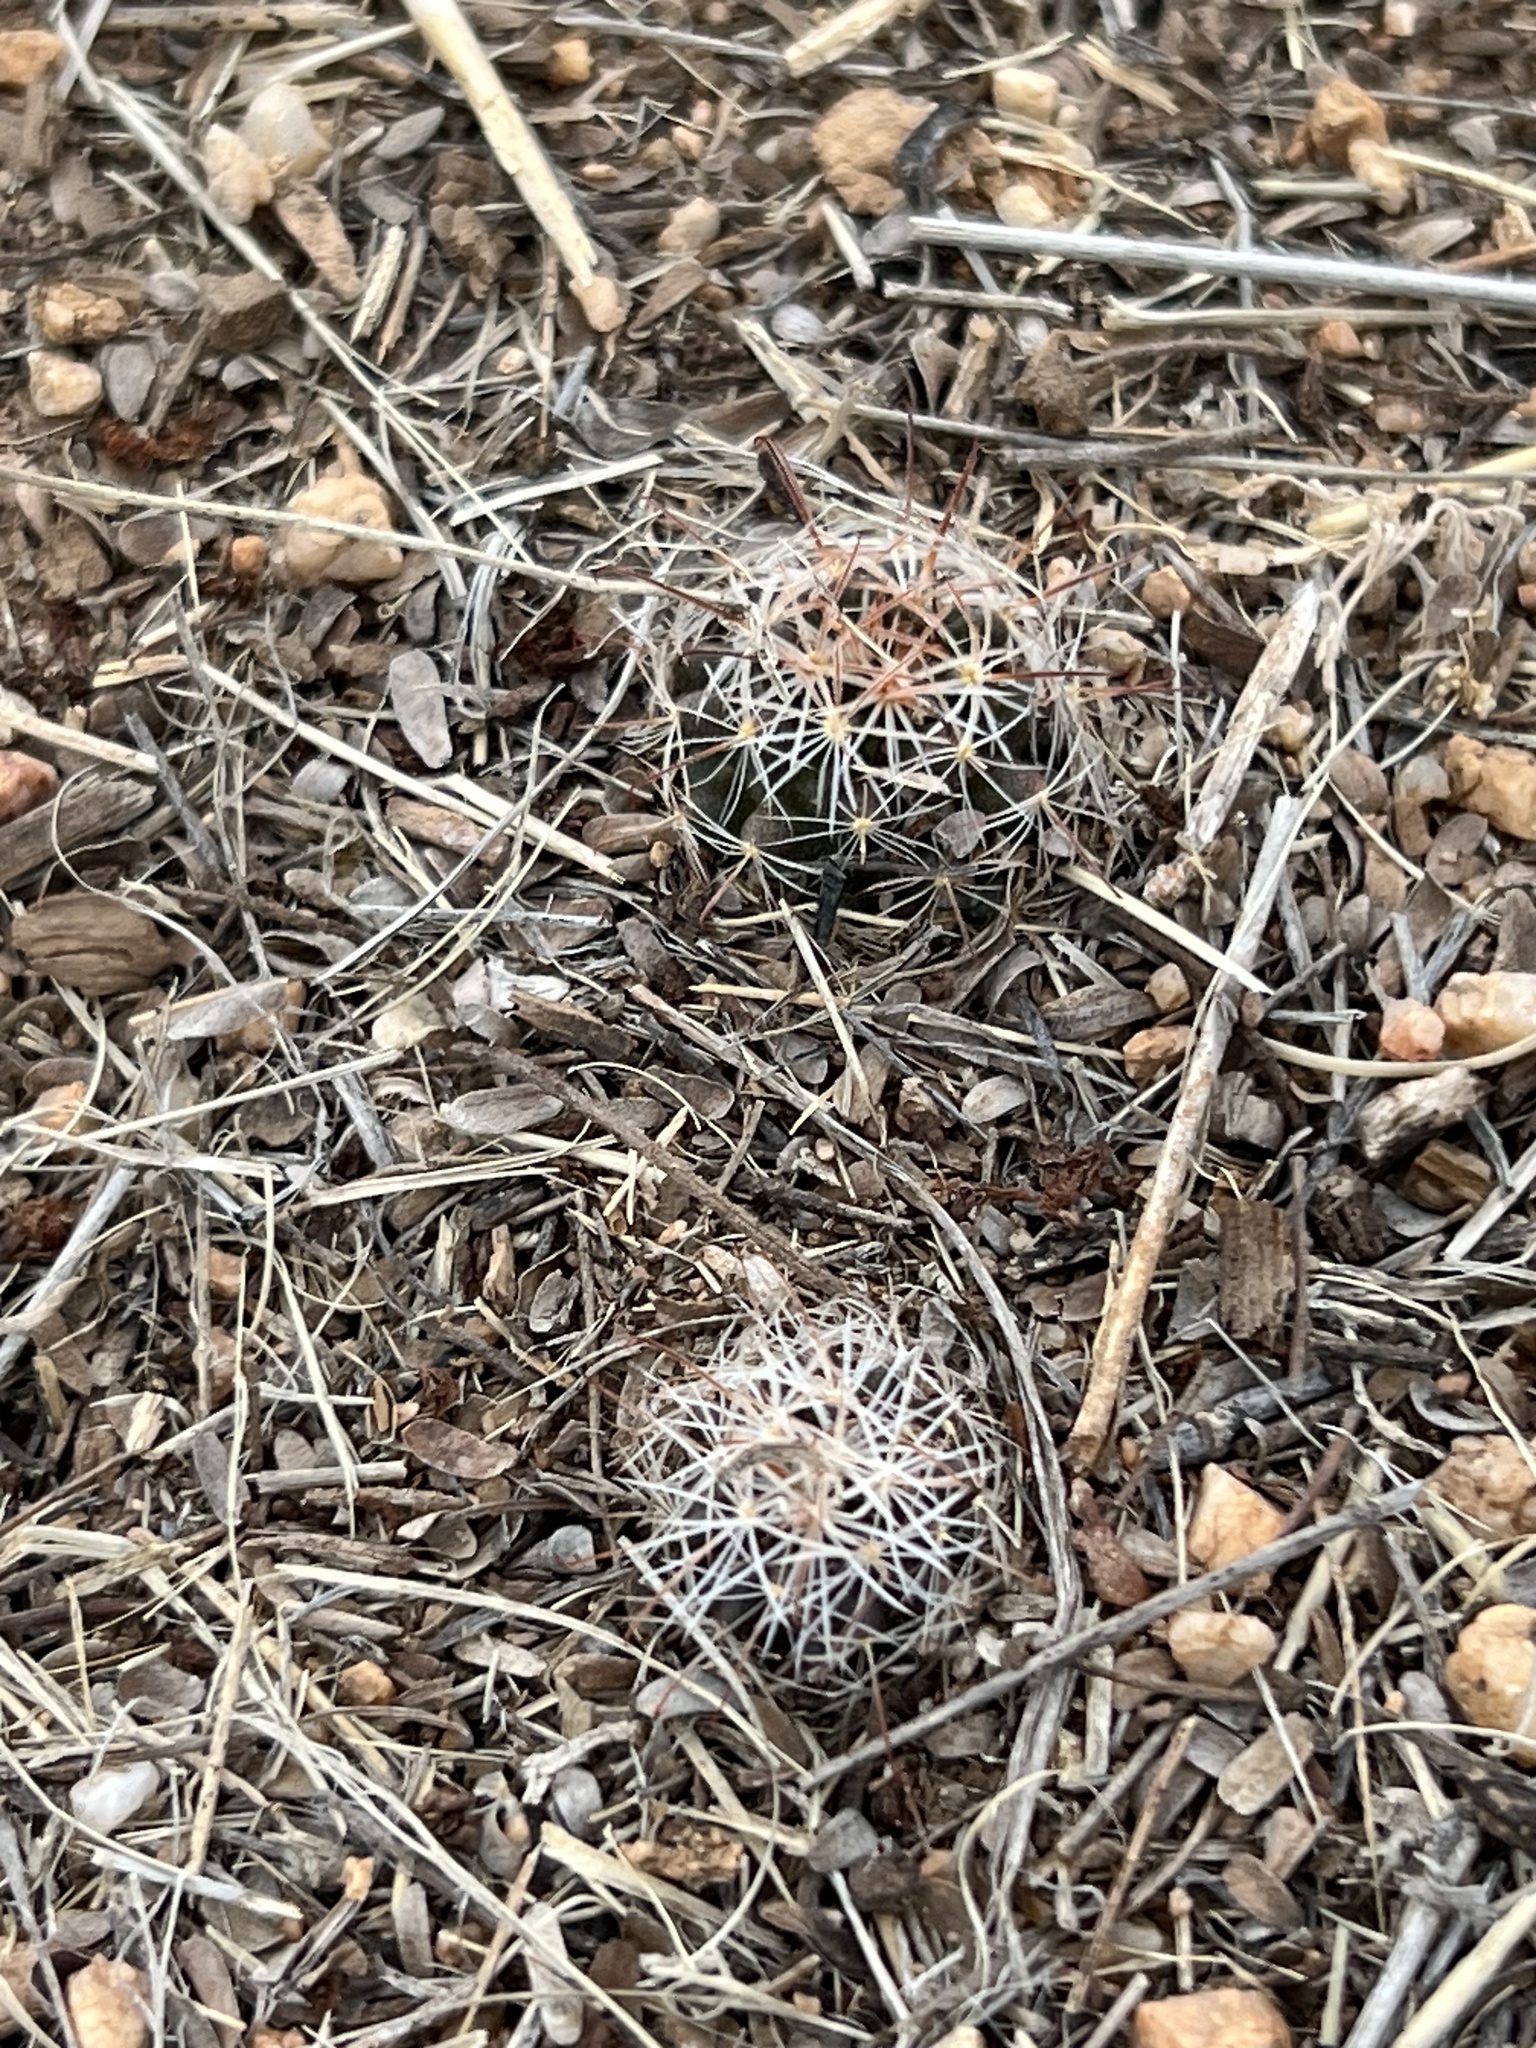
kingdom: Plantae
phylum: Tracheophyta
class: Magnoliopsida
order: Caryophyllales
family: Cactaceae
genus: Cochemiea
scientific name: Cochemiea wrightii
